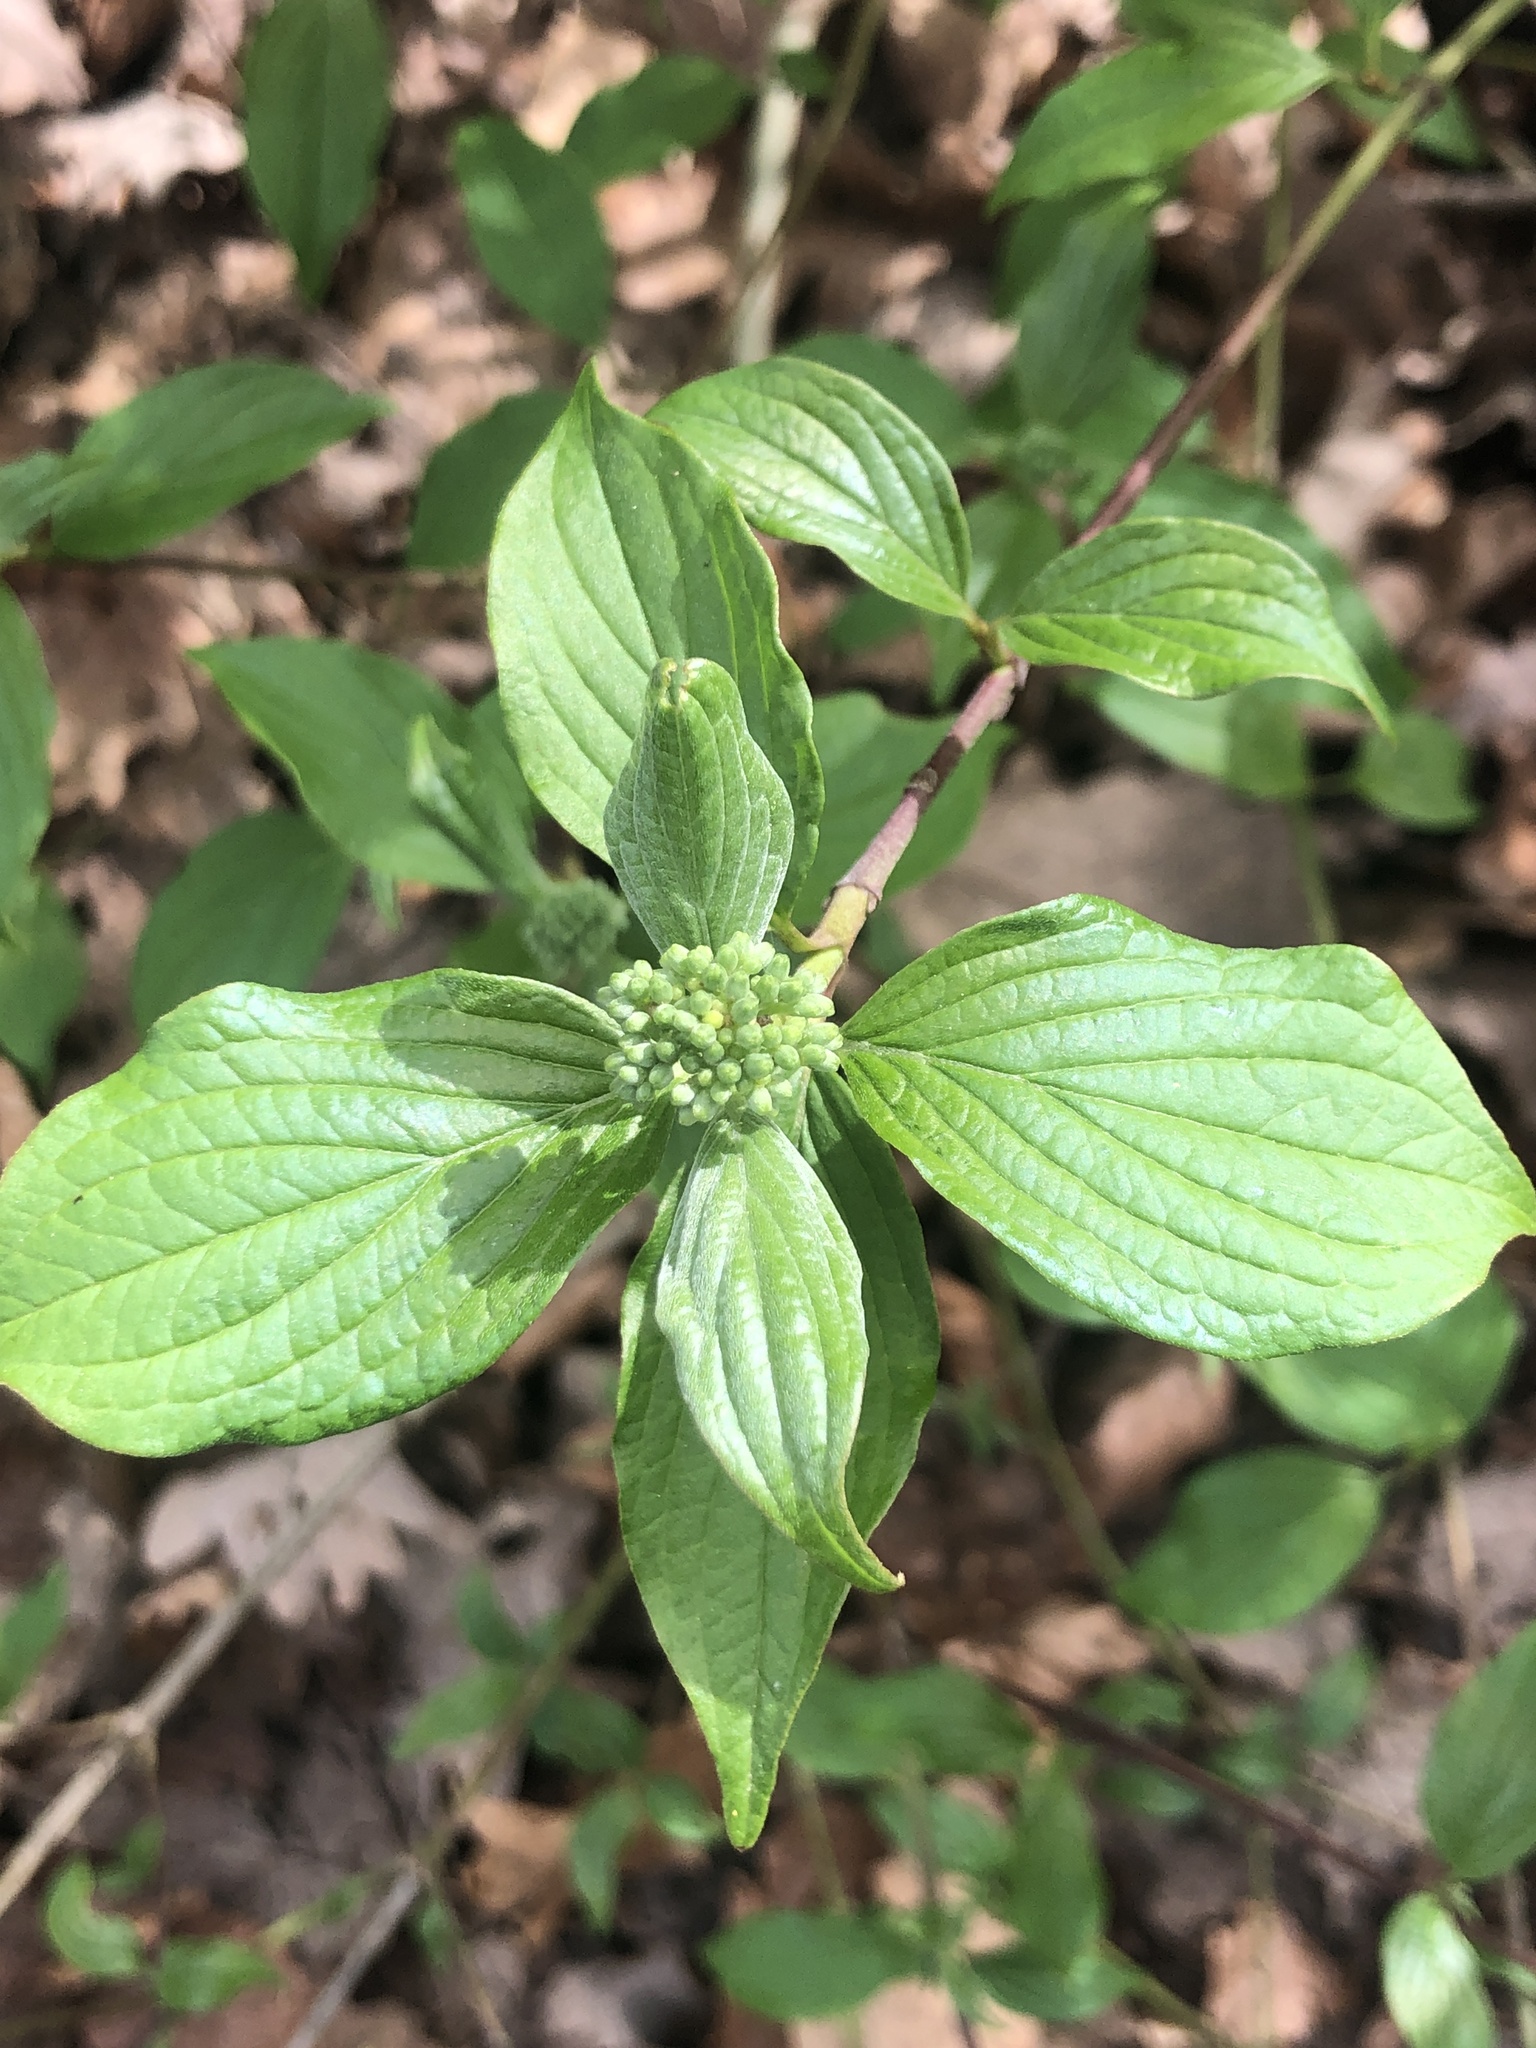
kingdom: Plantae
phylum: Tracheophyta
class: Magnoliopsida
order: Cornales
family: Cornaceae
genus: Cornus
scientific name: Cornus sanguinea
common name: Dogwood
